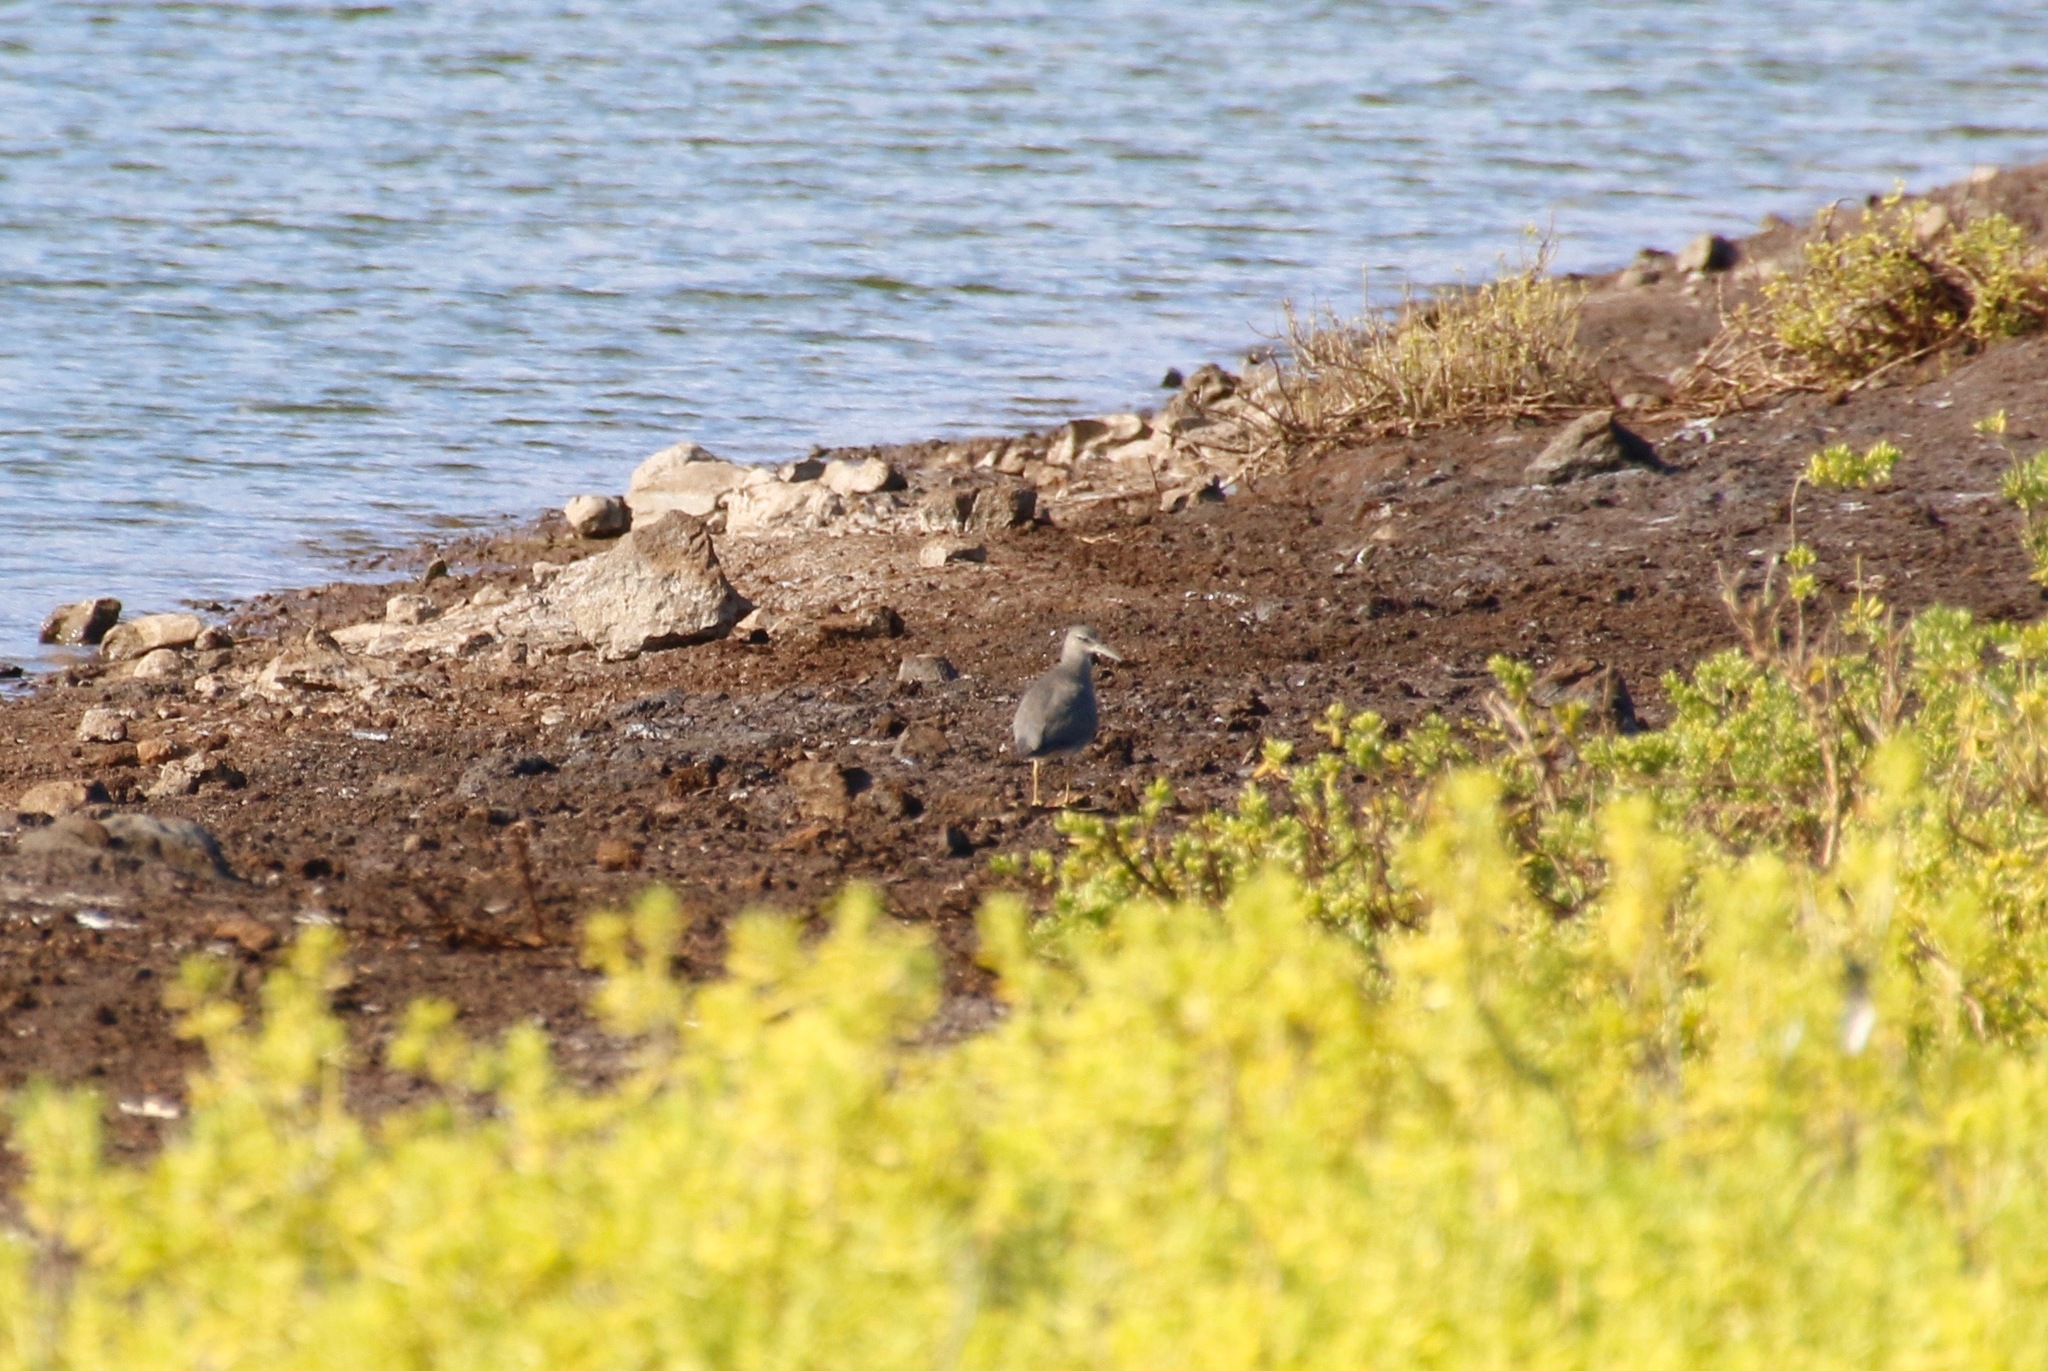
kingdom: Animalia
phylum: Chordata
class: Aves
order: Charadriiformes
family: Scolopacidae
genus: Tringa
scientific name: Tringa incana
